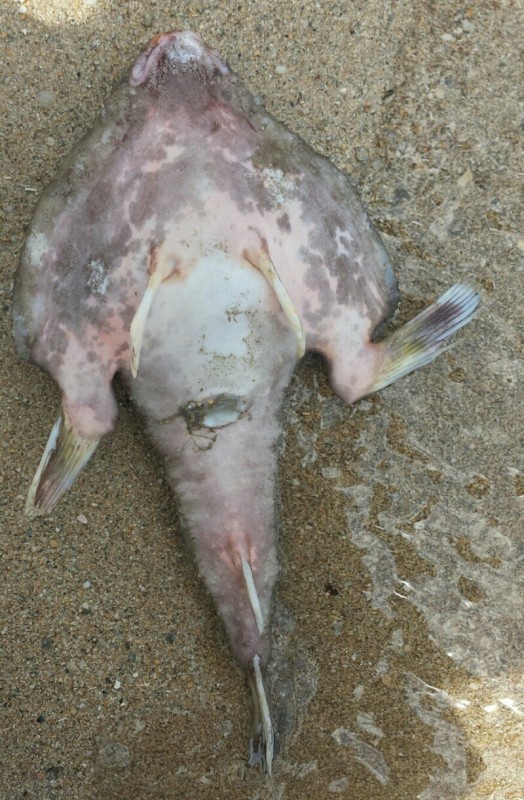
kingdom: Animalia
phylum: Chordata
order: Lophiiformes
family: Ogcocephalidae
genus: Ogcocephalus
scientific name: Ogcocephalus
